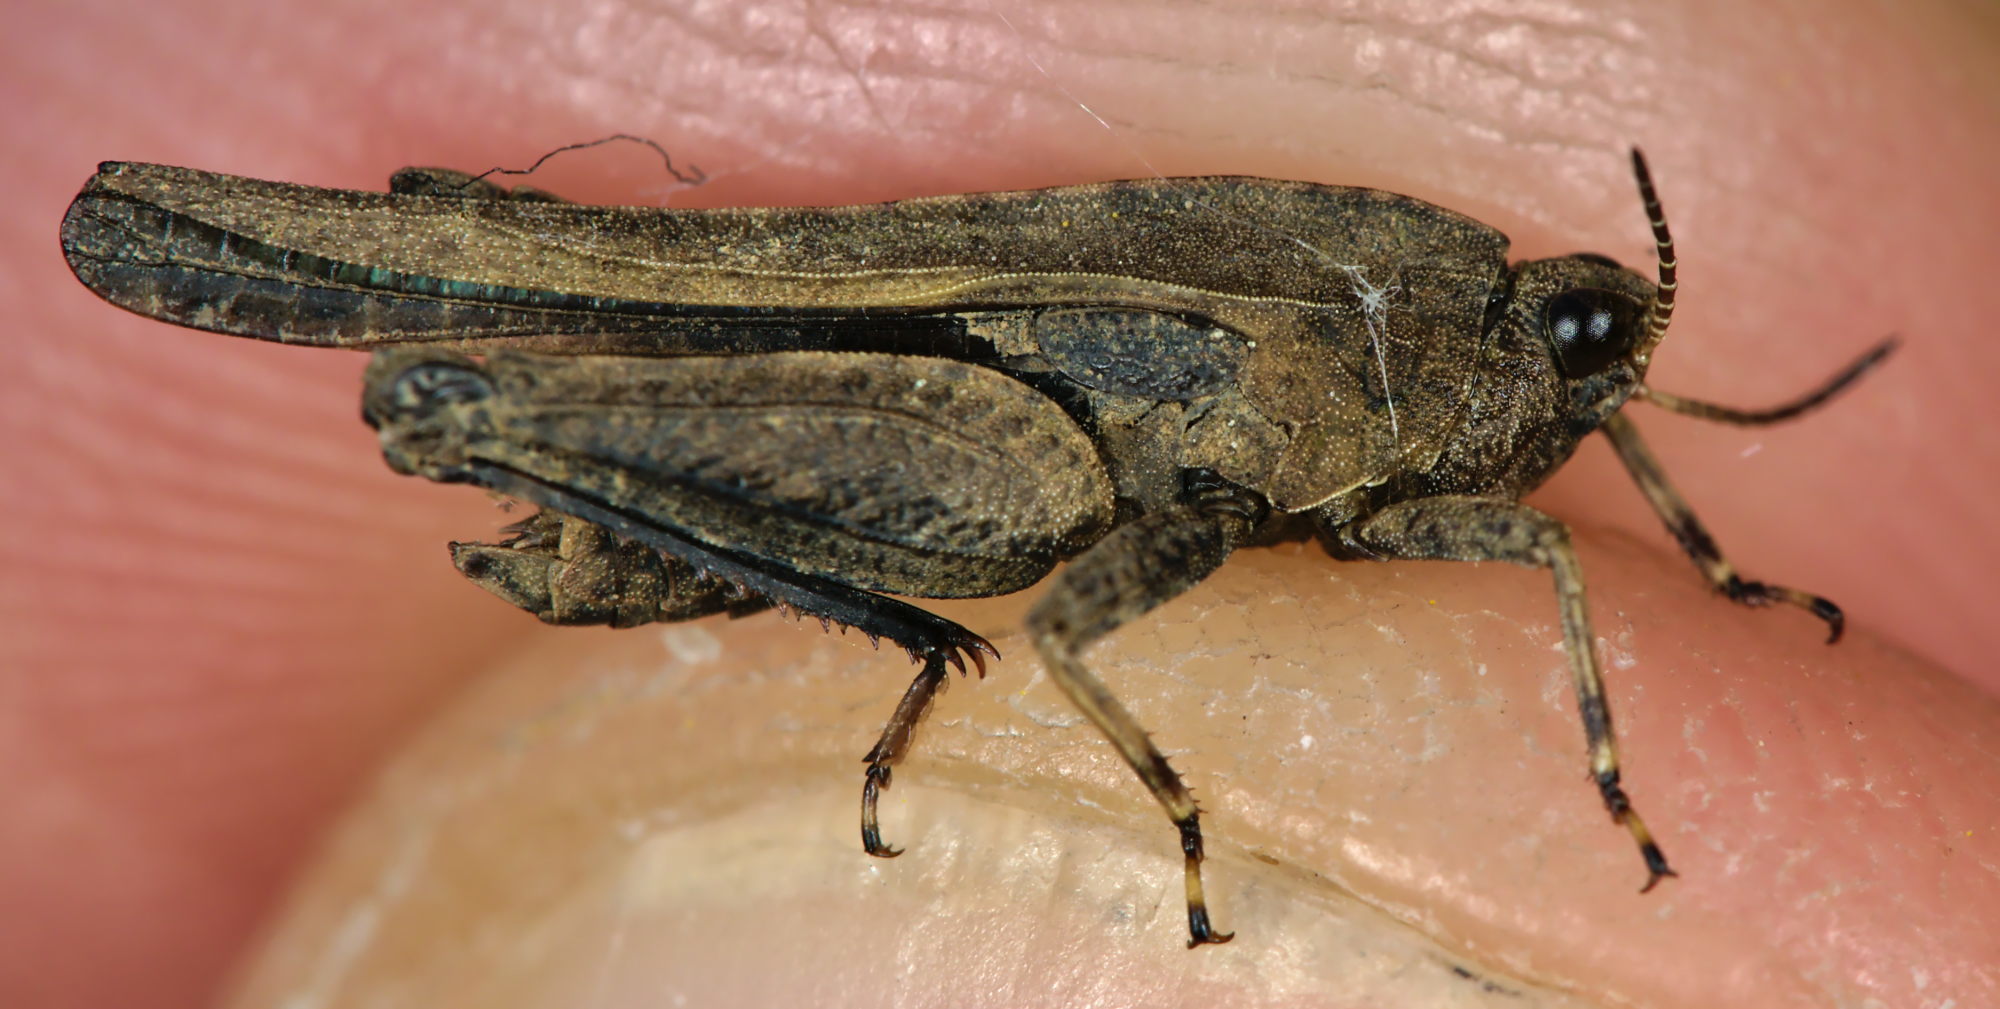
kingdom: Animalia
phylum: Arthropoda
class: Insecta
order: Orthoptera
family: Tetrigidae
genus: Tetrix
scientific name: Tetrix undulata
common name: Common groundhopper
